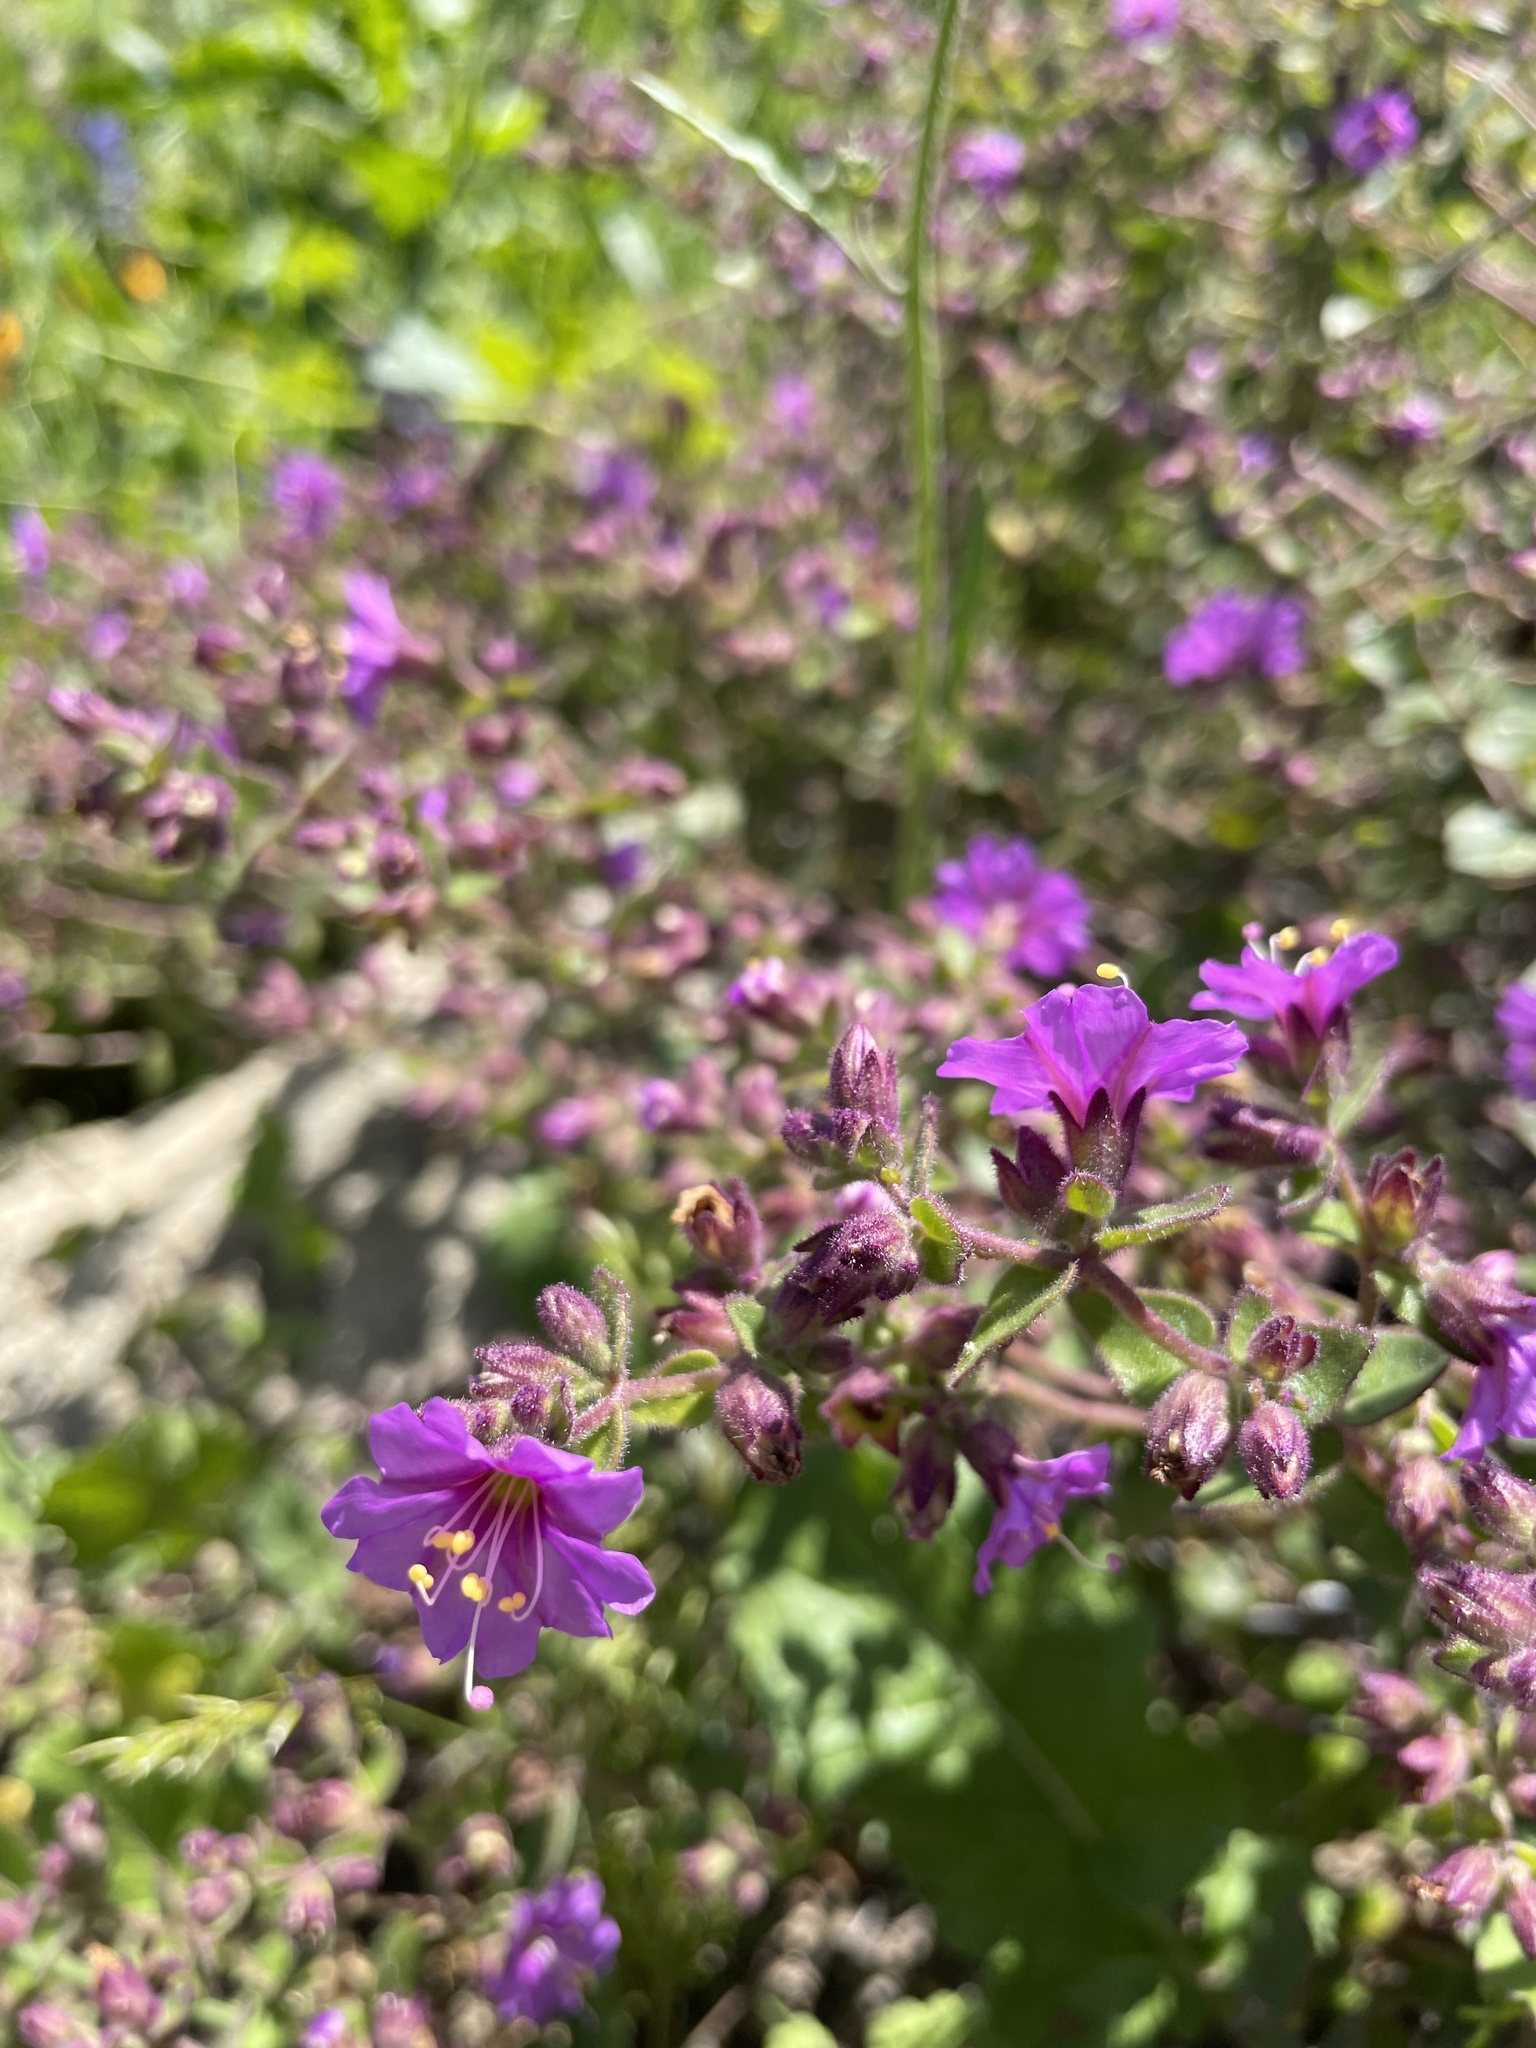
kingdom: Plantae
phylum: Tracheophyta
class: Magnoliopsida
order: Caryophyllales
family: Nyctaginaceae
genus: Mirabilis
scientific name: Mirabilis laevis
